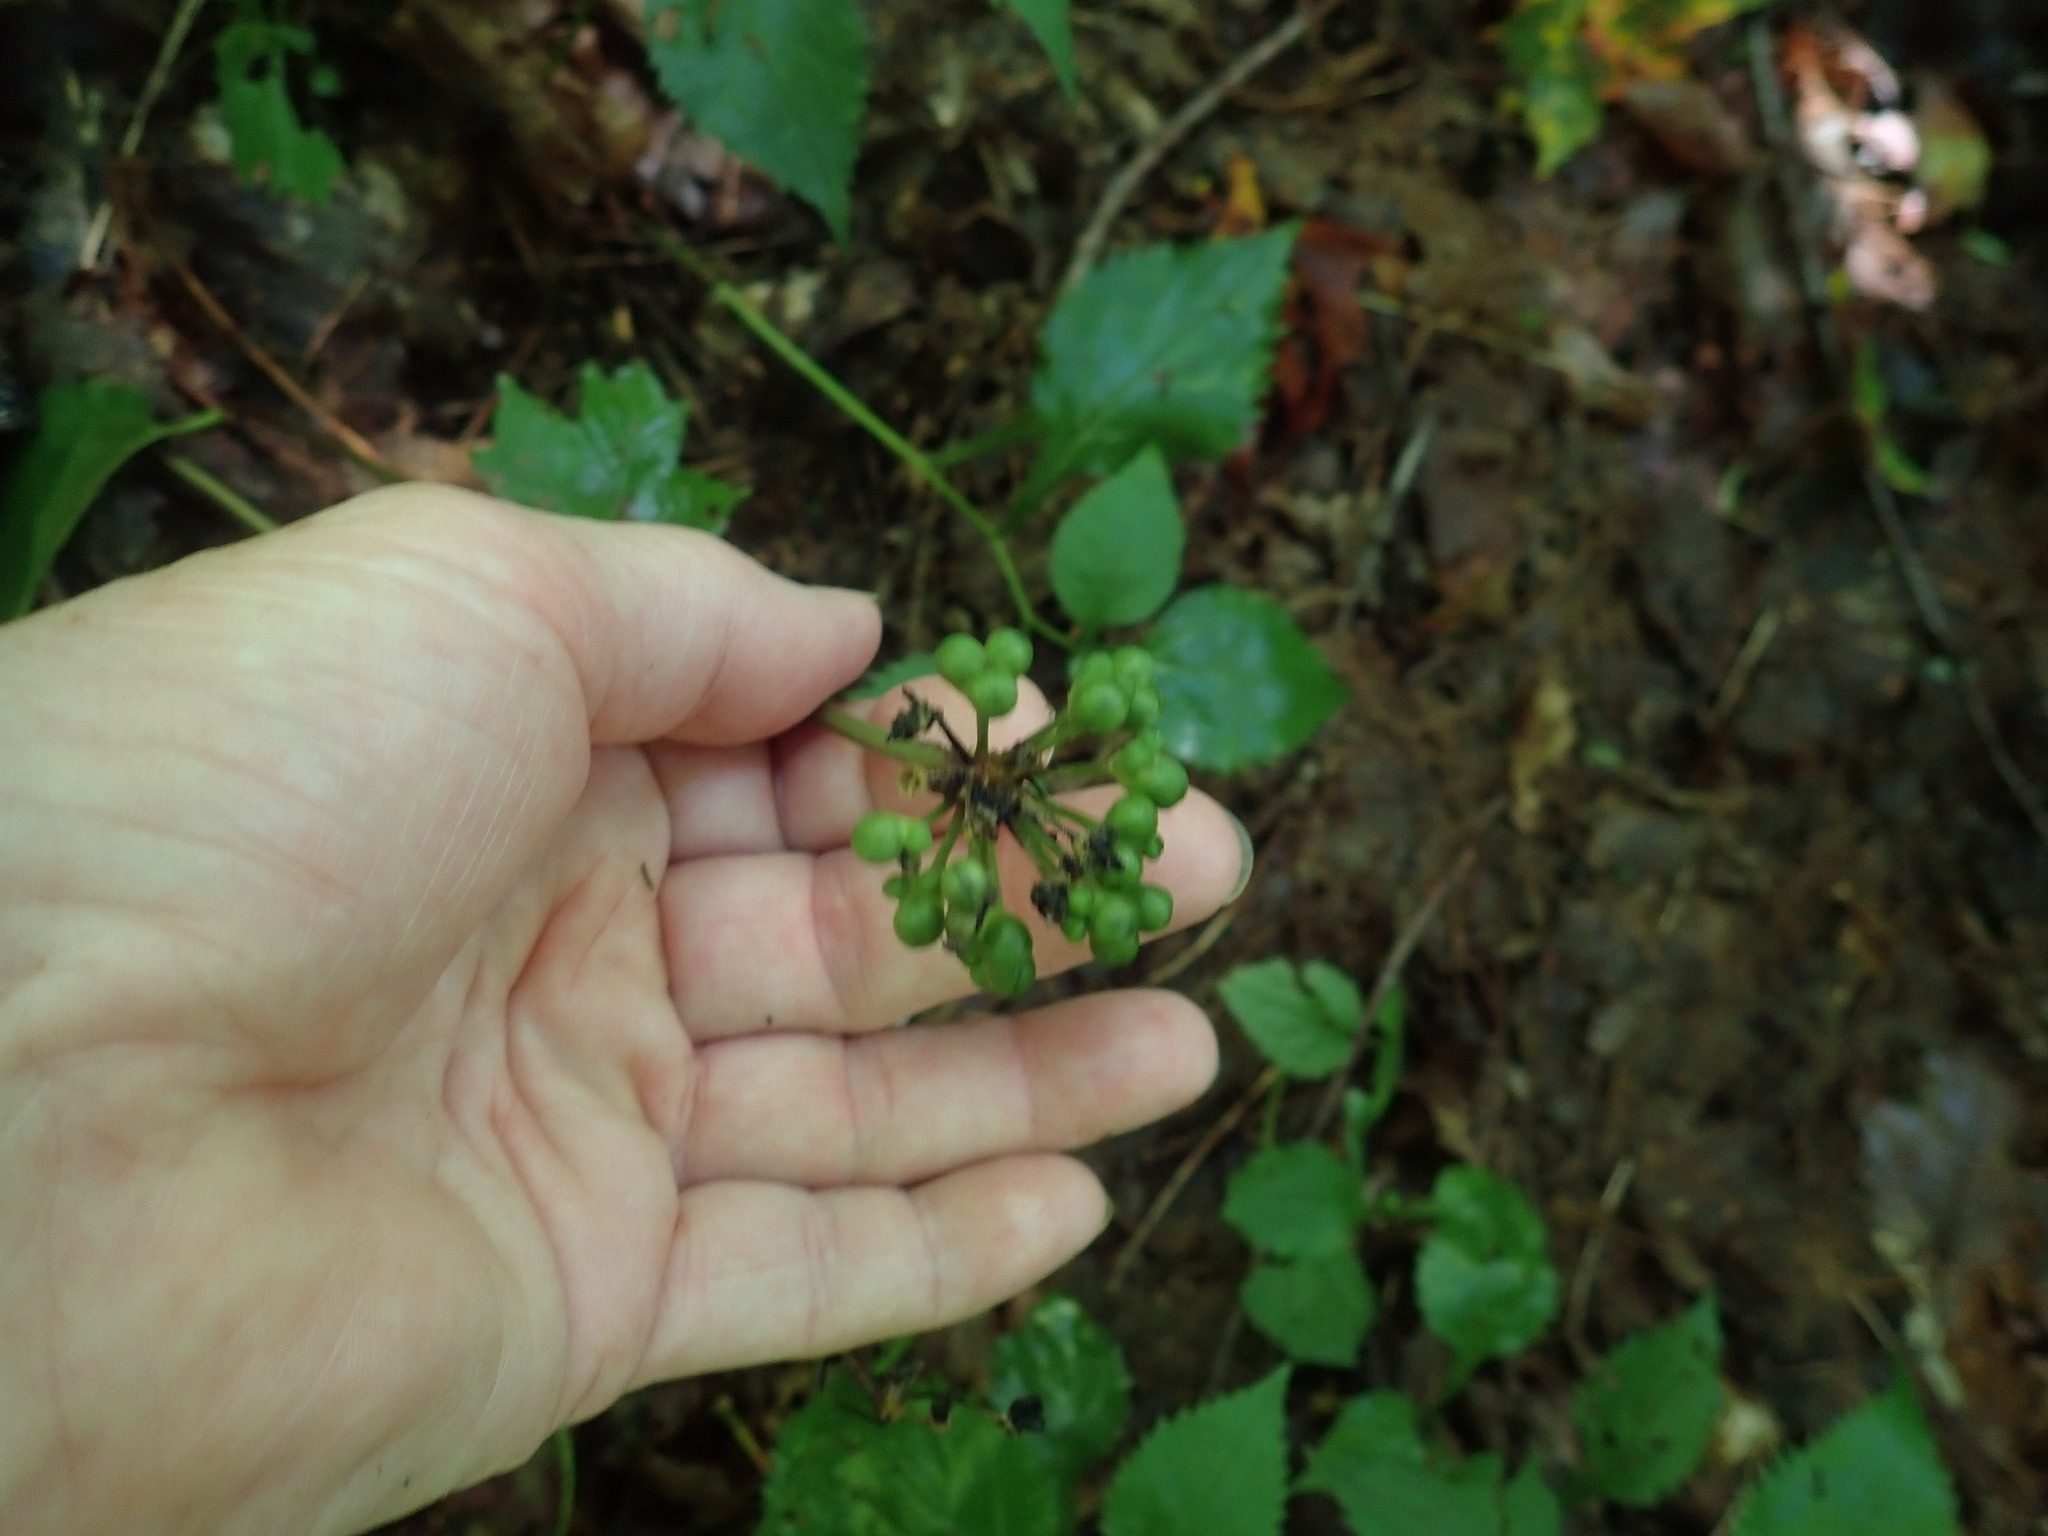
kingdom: Plantae
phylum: Tracheophyta
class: Liliopsida
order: Asparagales
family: Amaryllidaceae
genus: Allium
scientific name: Allium tricoccum
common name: Ramp
